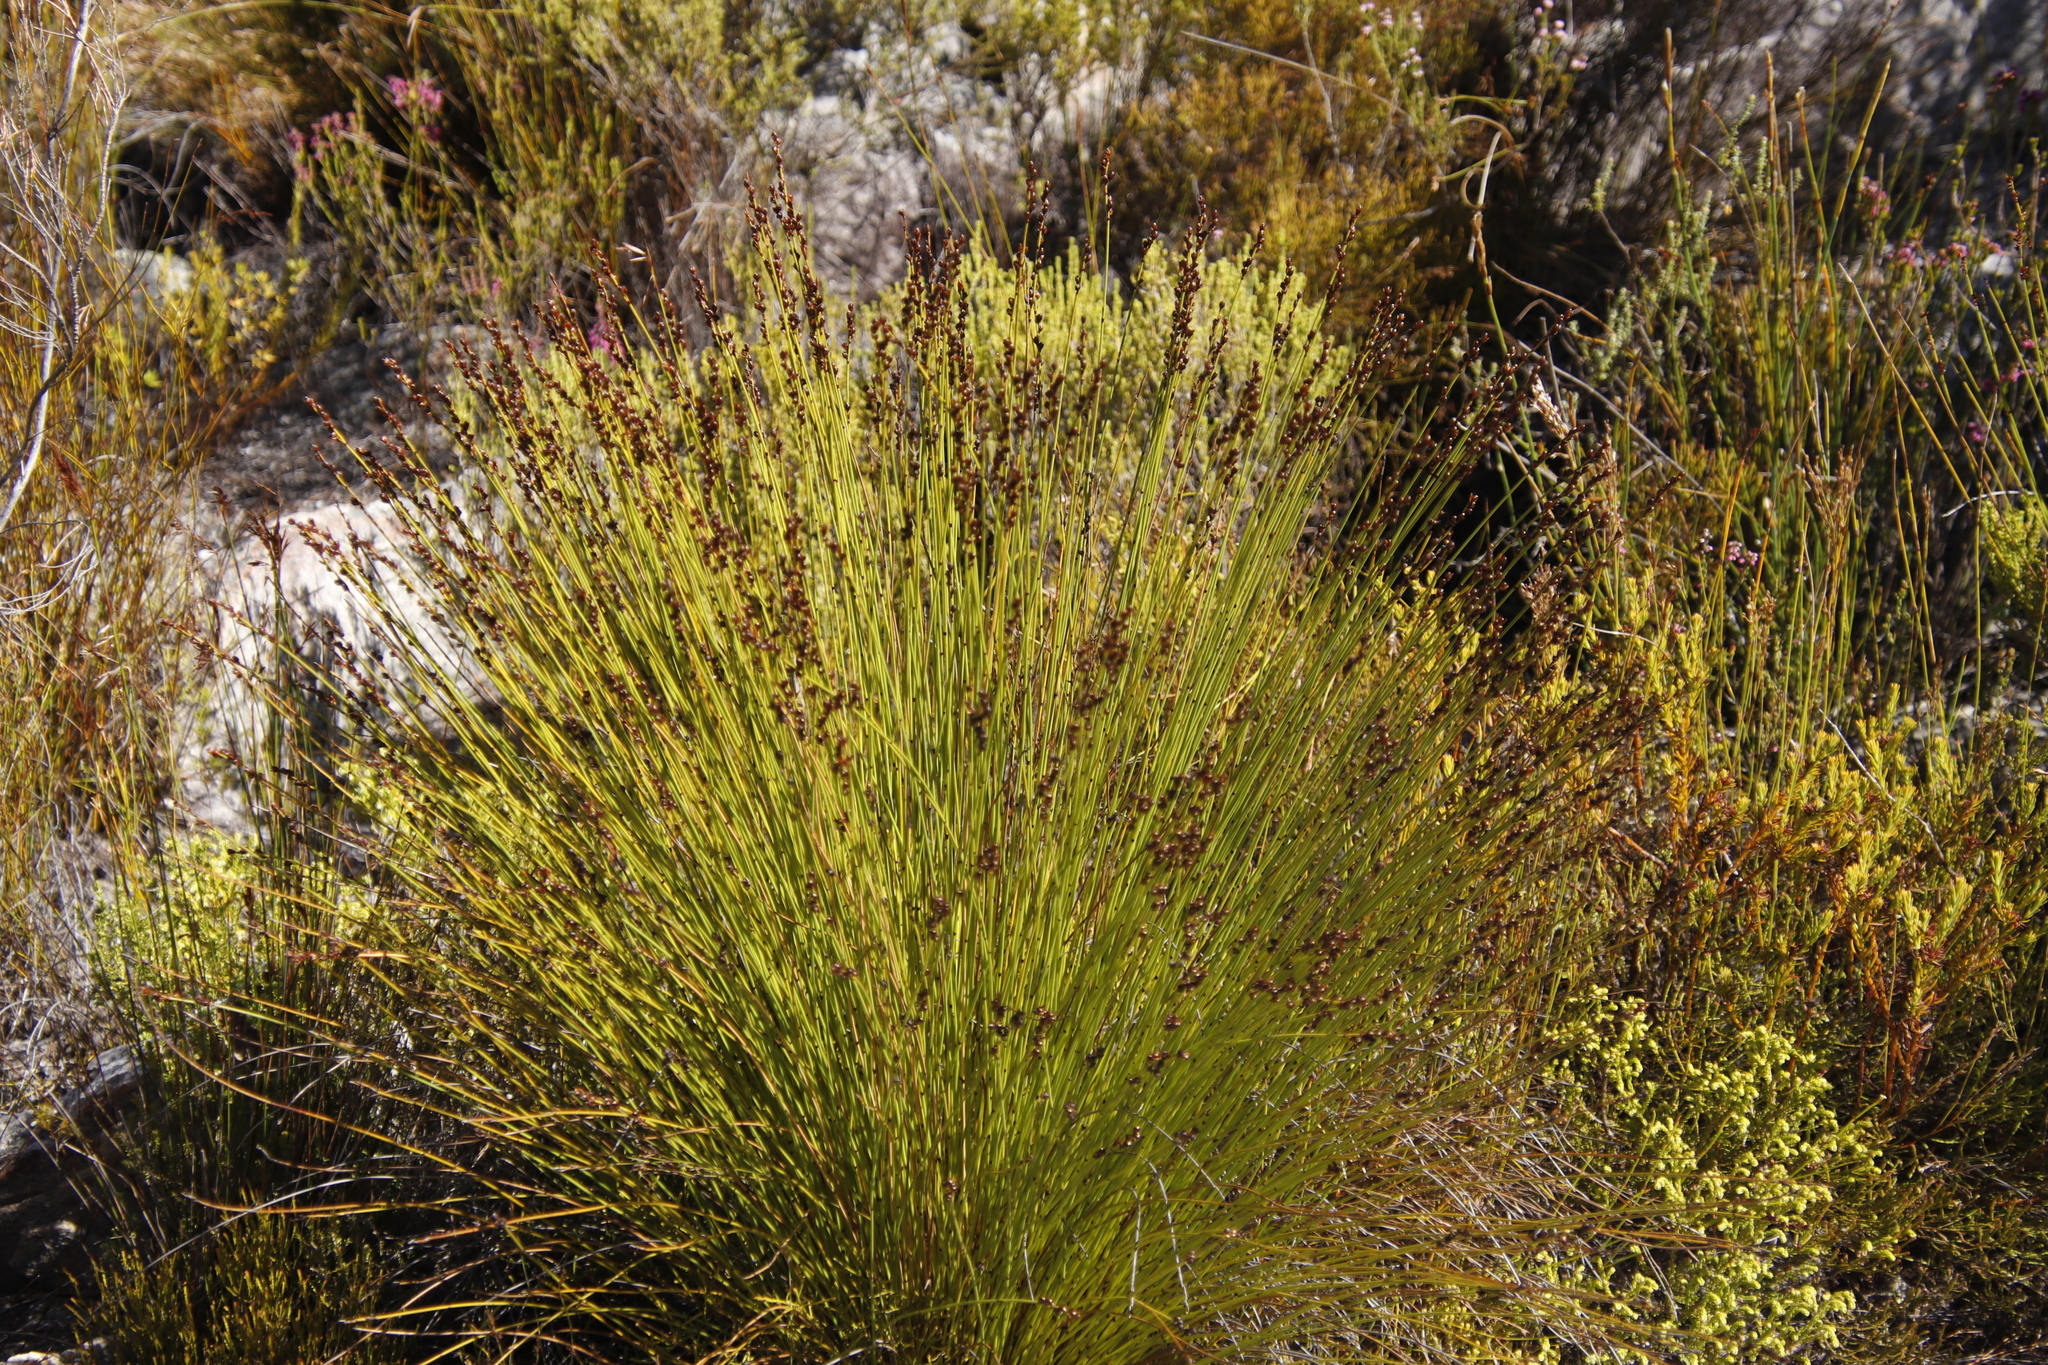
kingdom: Plantae
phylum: Tracheophyta
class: Liliopsida
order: Poales
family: Restionaceae
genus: Elegia
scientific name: Elegia hookeriana
